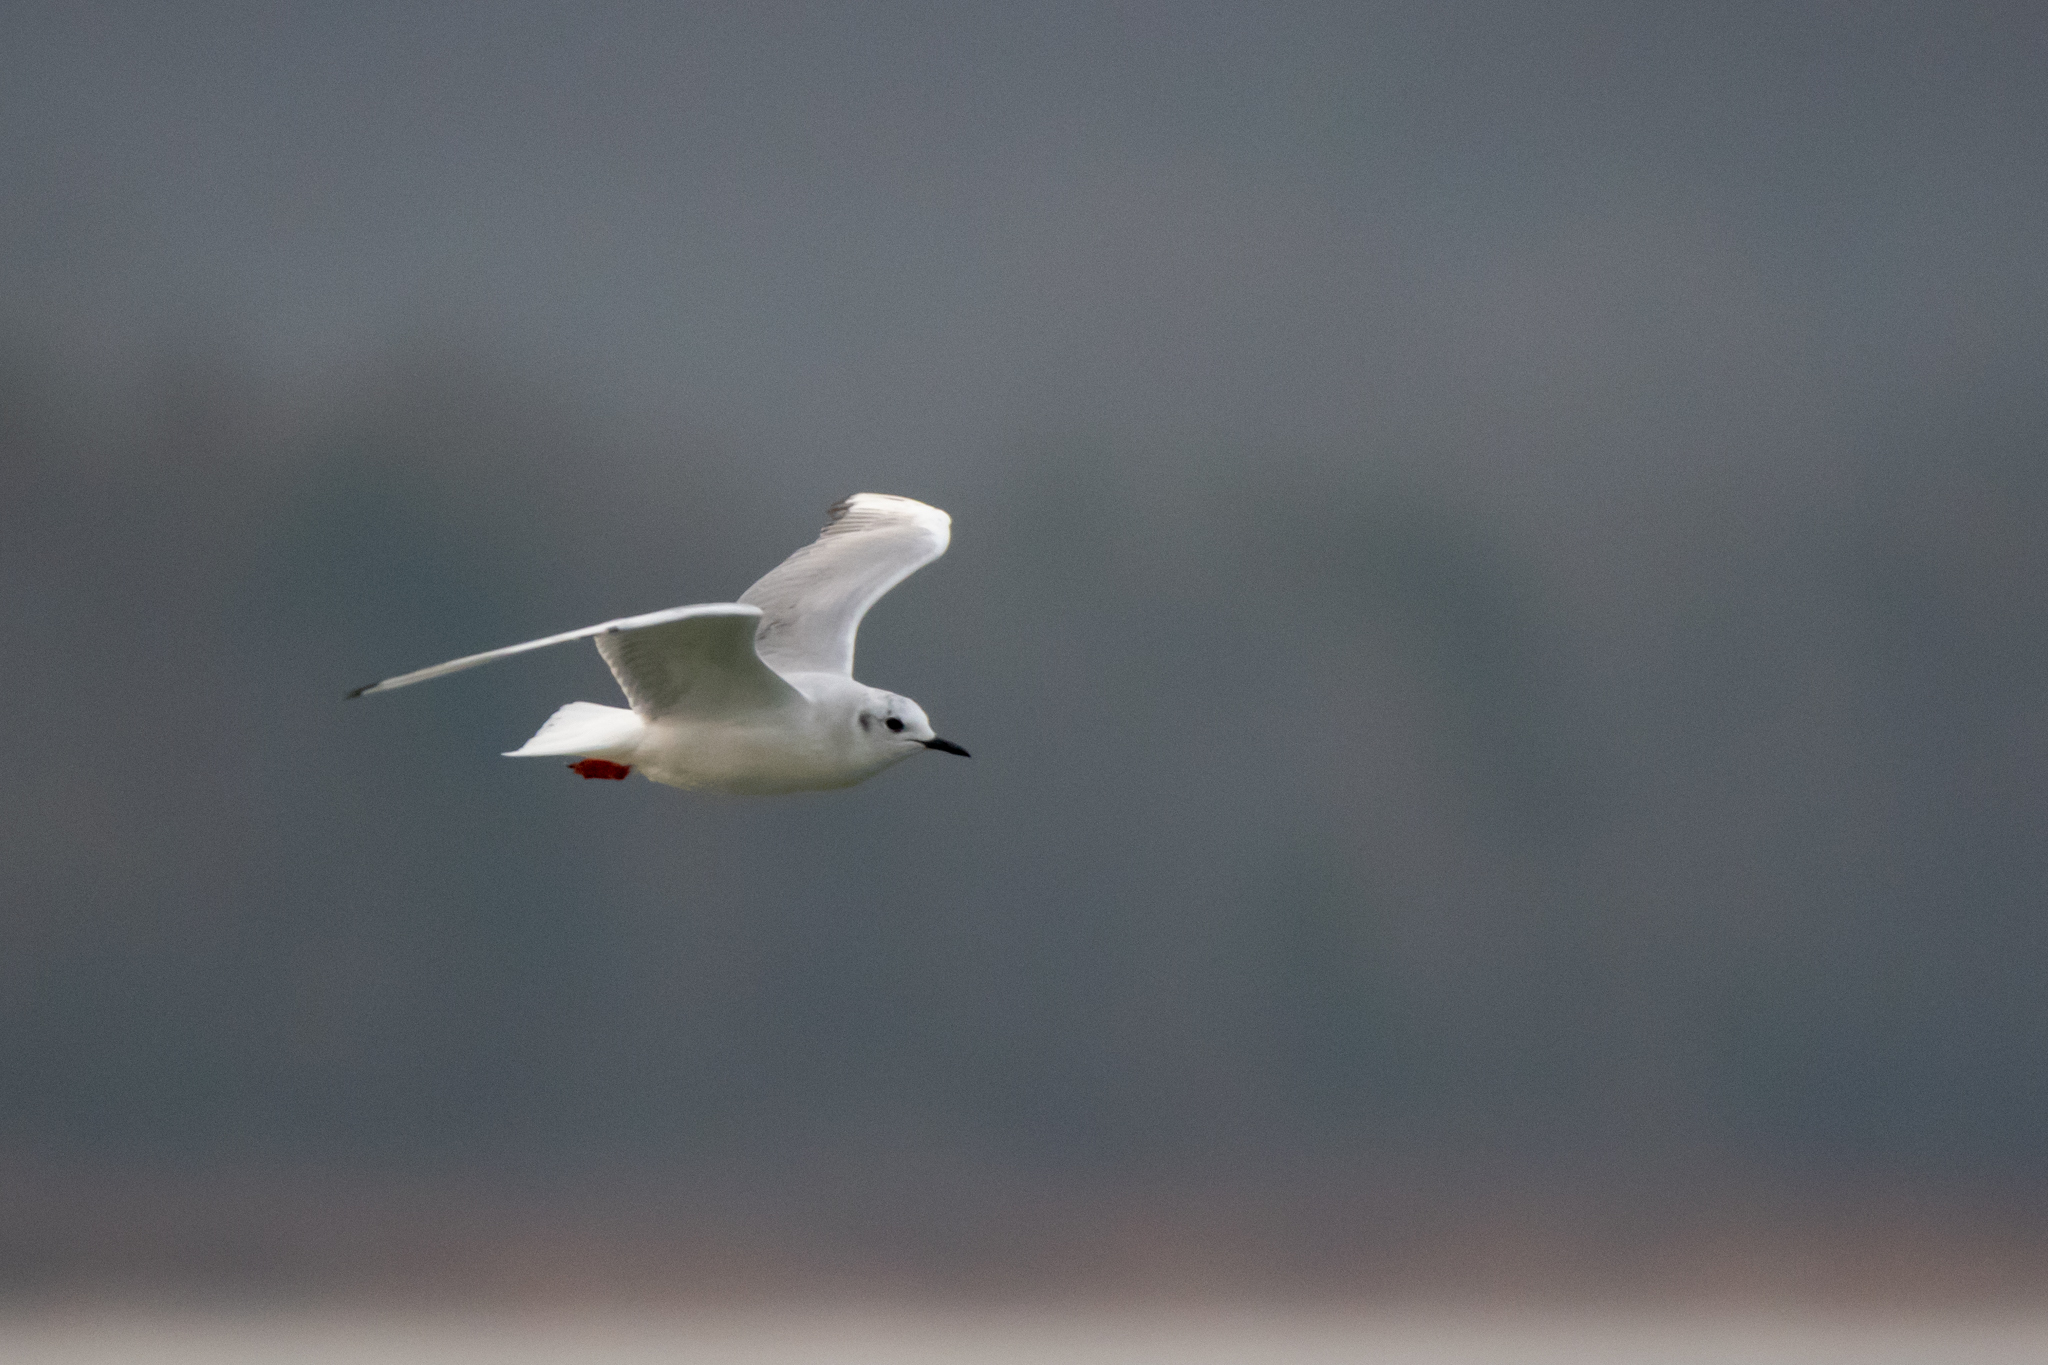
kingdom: Animalia
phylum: Chordata
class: Aves
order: Charadriiformes
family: Laridae
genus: Chroicocephalus
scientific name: Chroicocephalus philadelphia
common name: Bonaparte's gull
